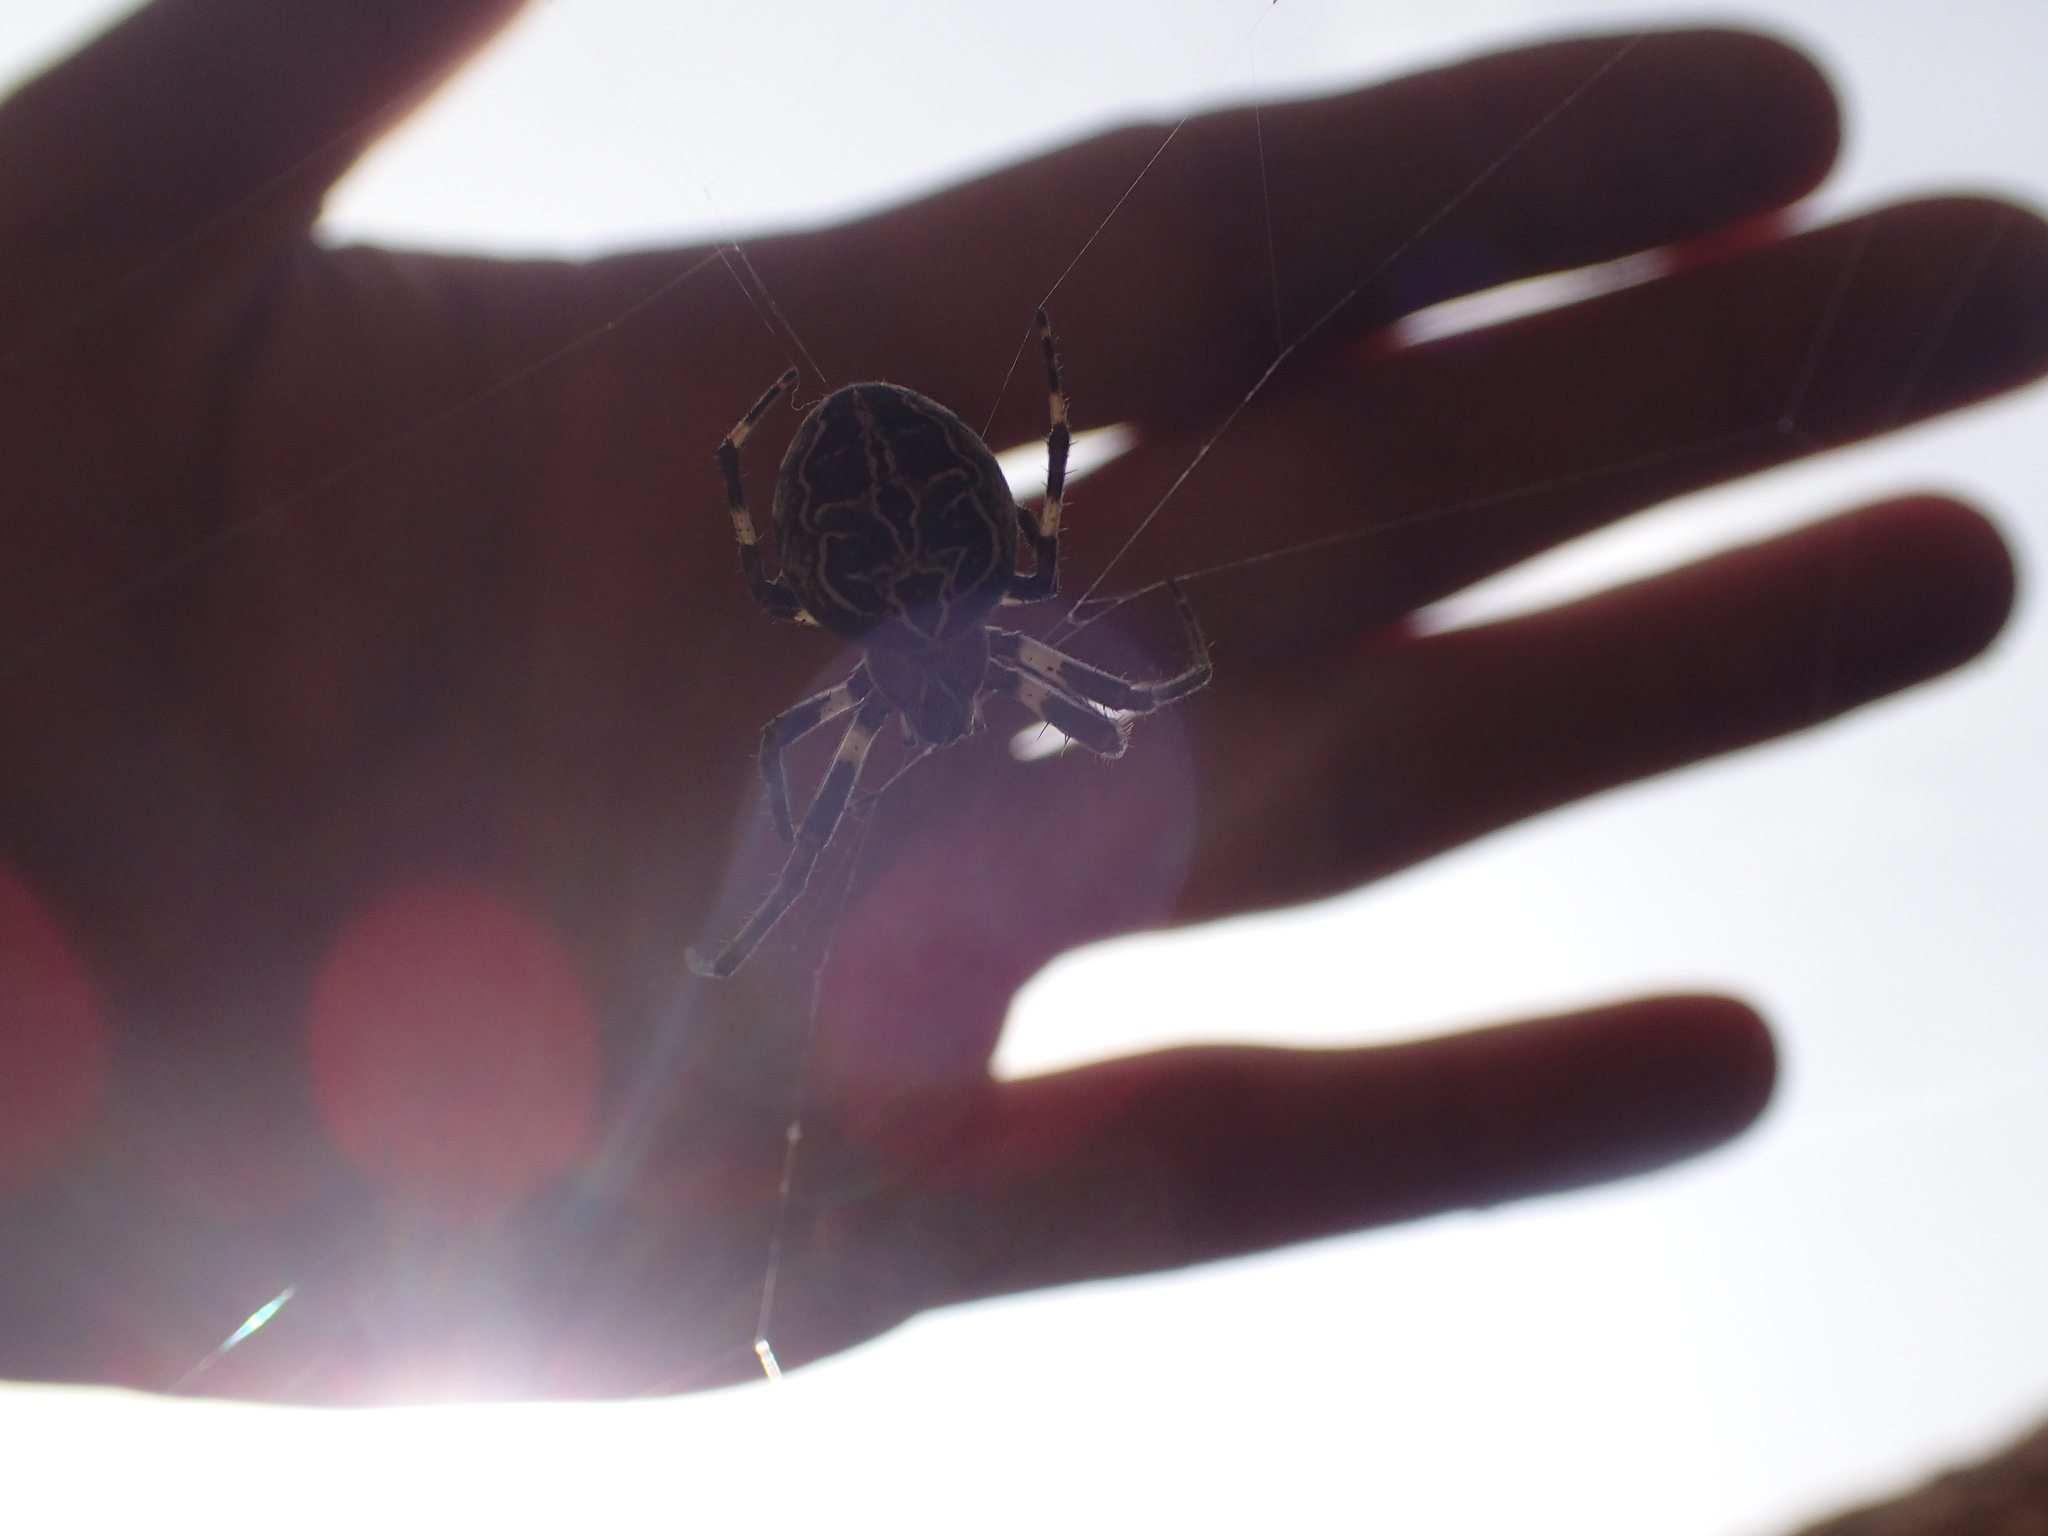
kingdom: Animalia
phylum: Arthropoda
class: Arachnida
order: Araneae
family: Araneidae
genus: Larinioides
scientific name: Larinioides sclopetarius
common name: Bridge orbweaver
